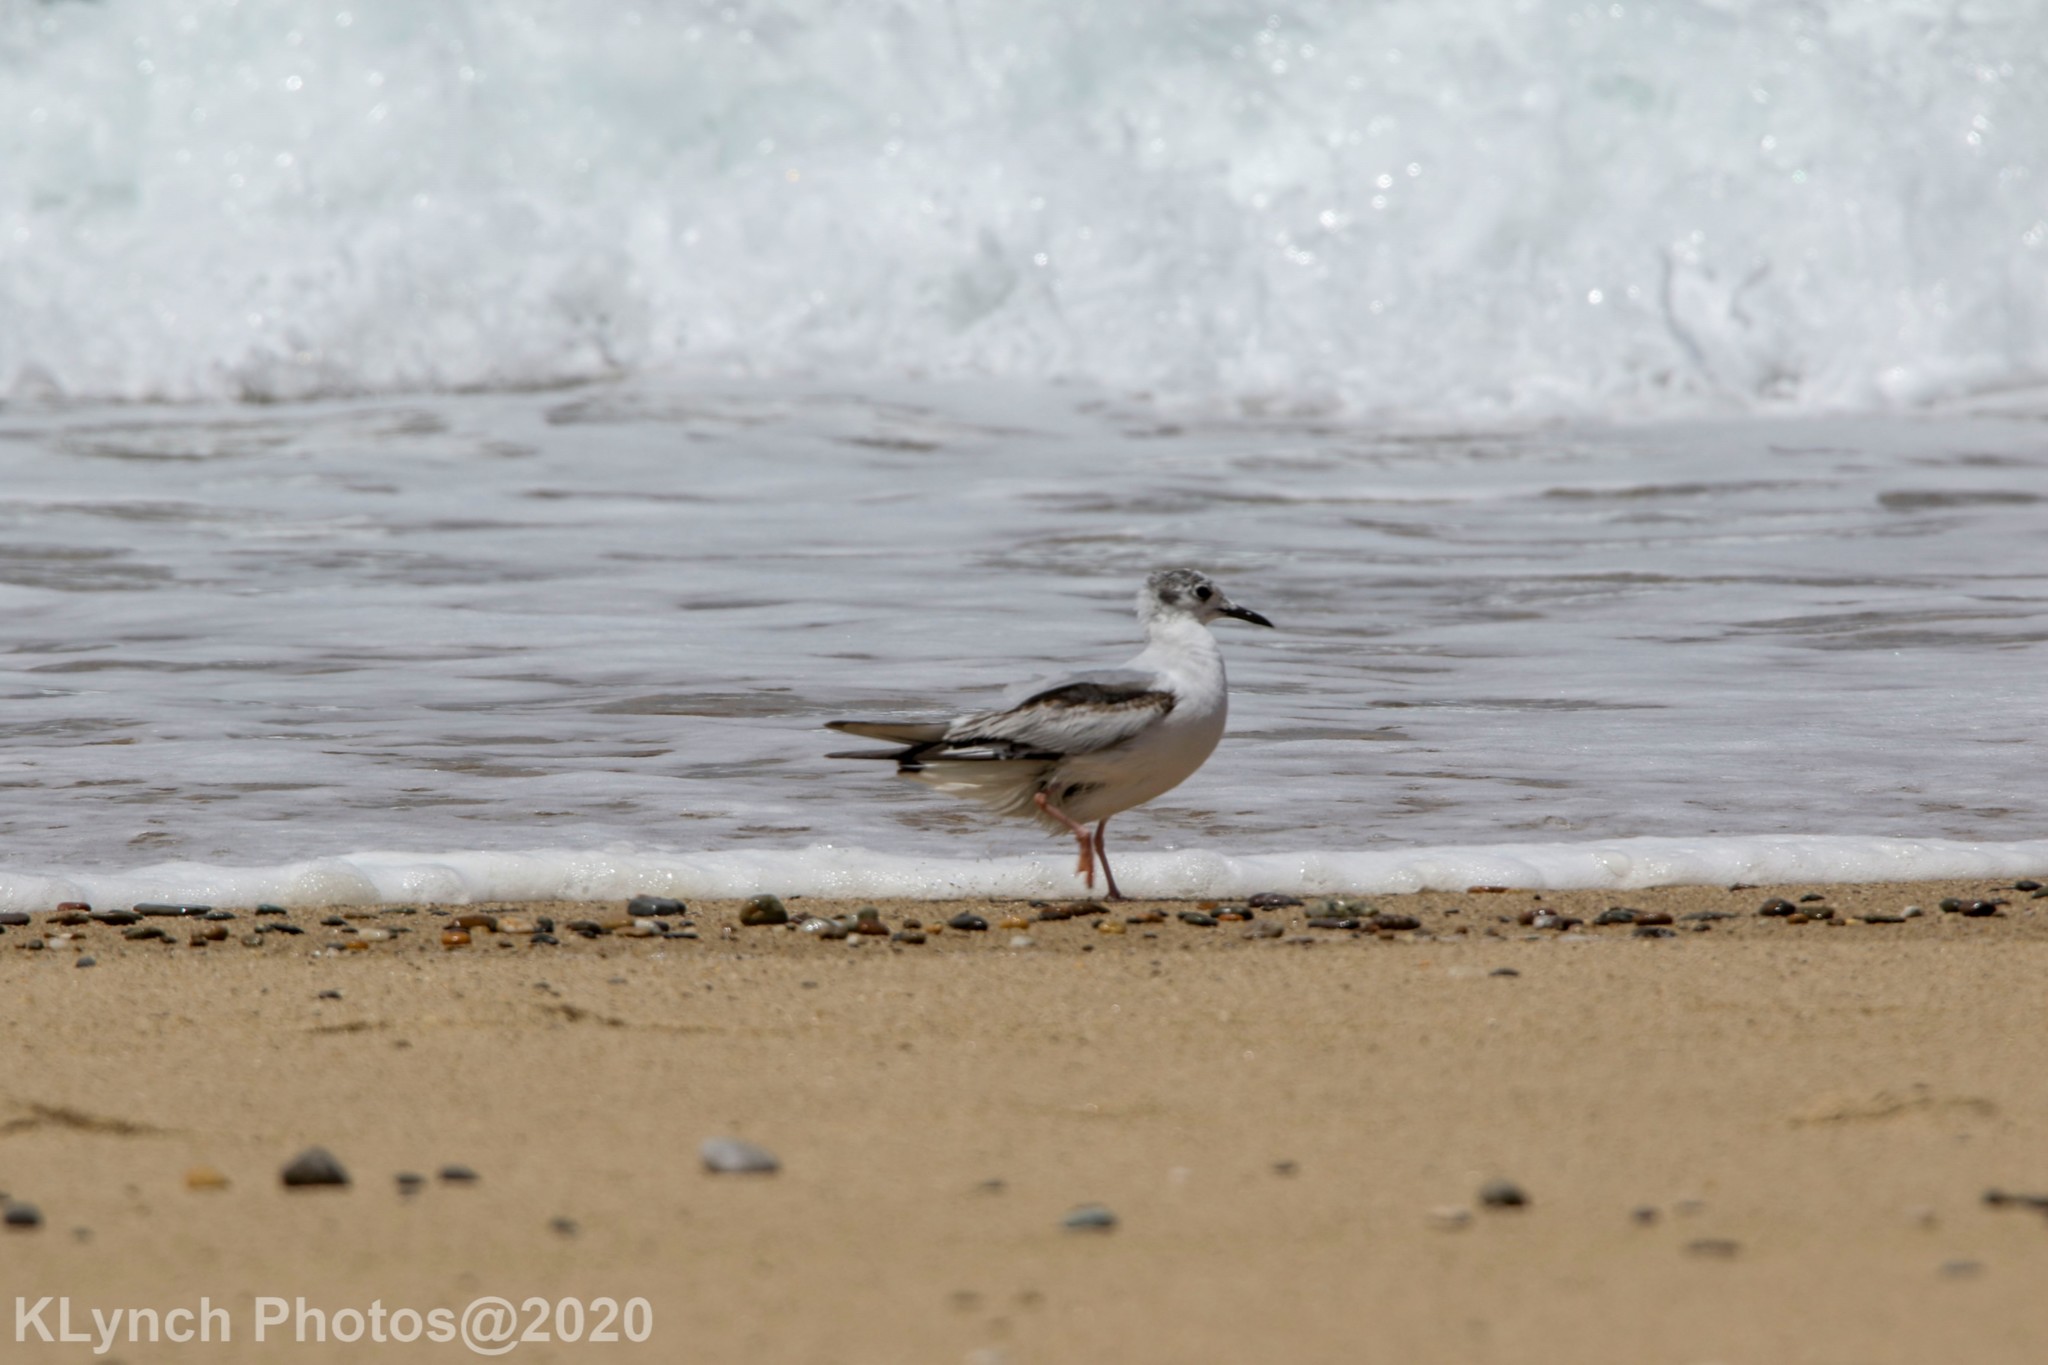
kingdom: Animalia
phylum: Chordata
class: Aves
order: Charadriiformes
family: Laridae
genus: Chroicocephalus
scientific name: Chroicocephalus philadelphia
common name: Bonaparte's gull
